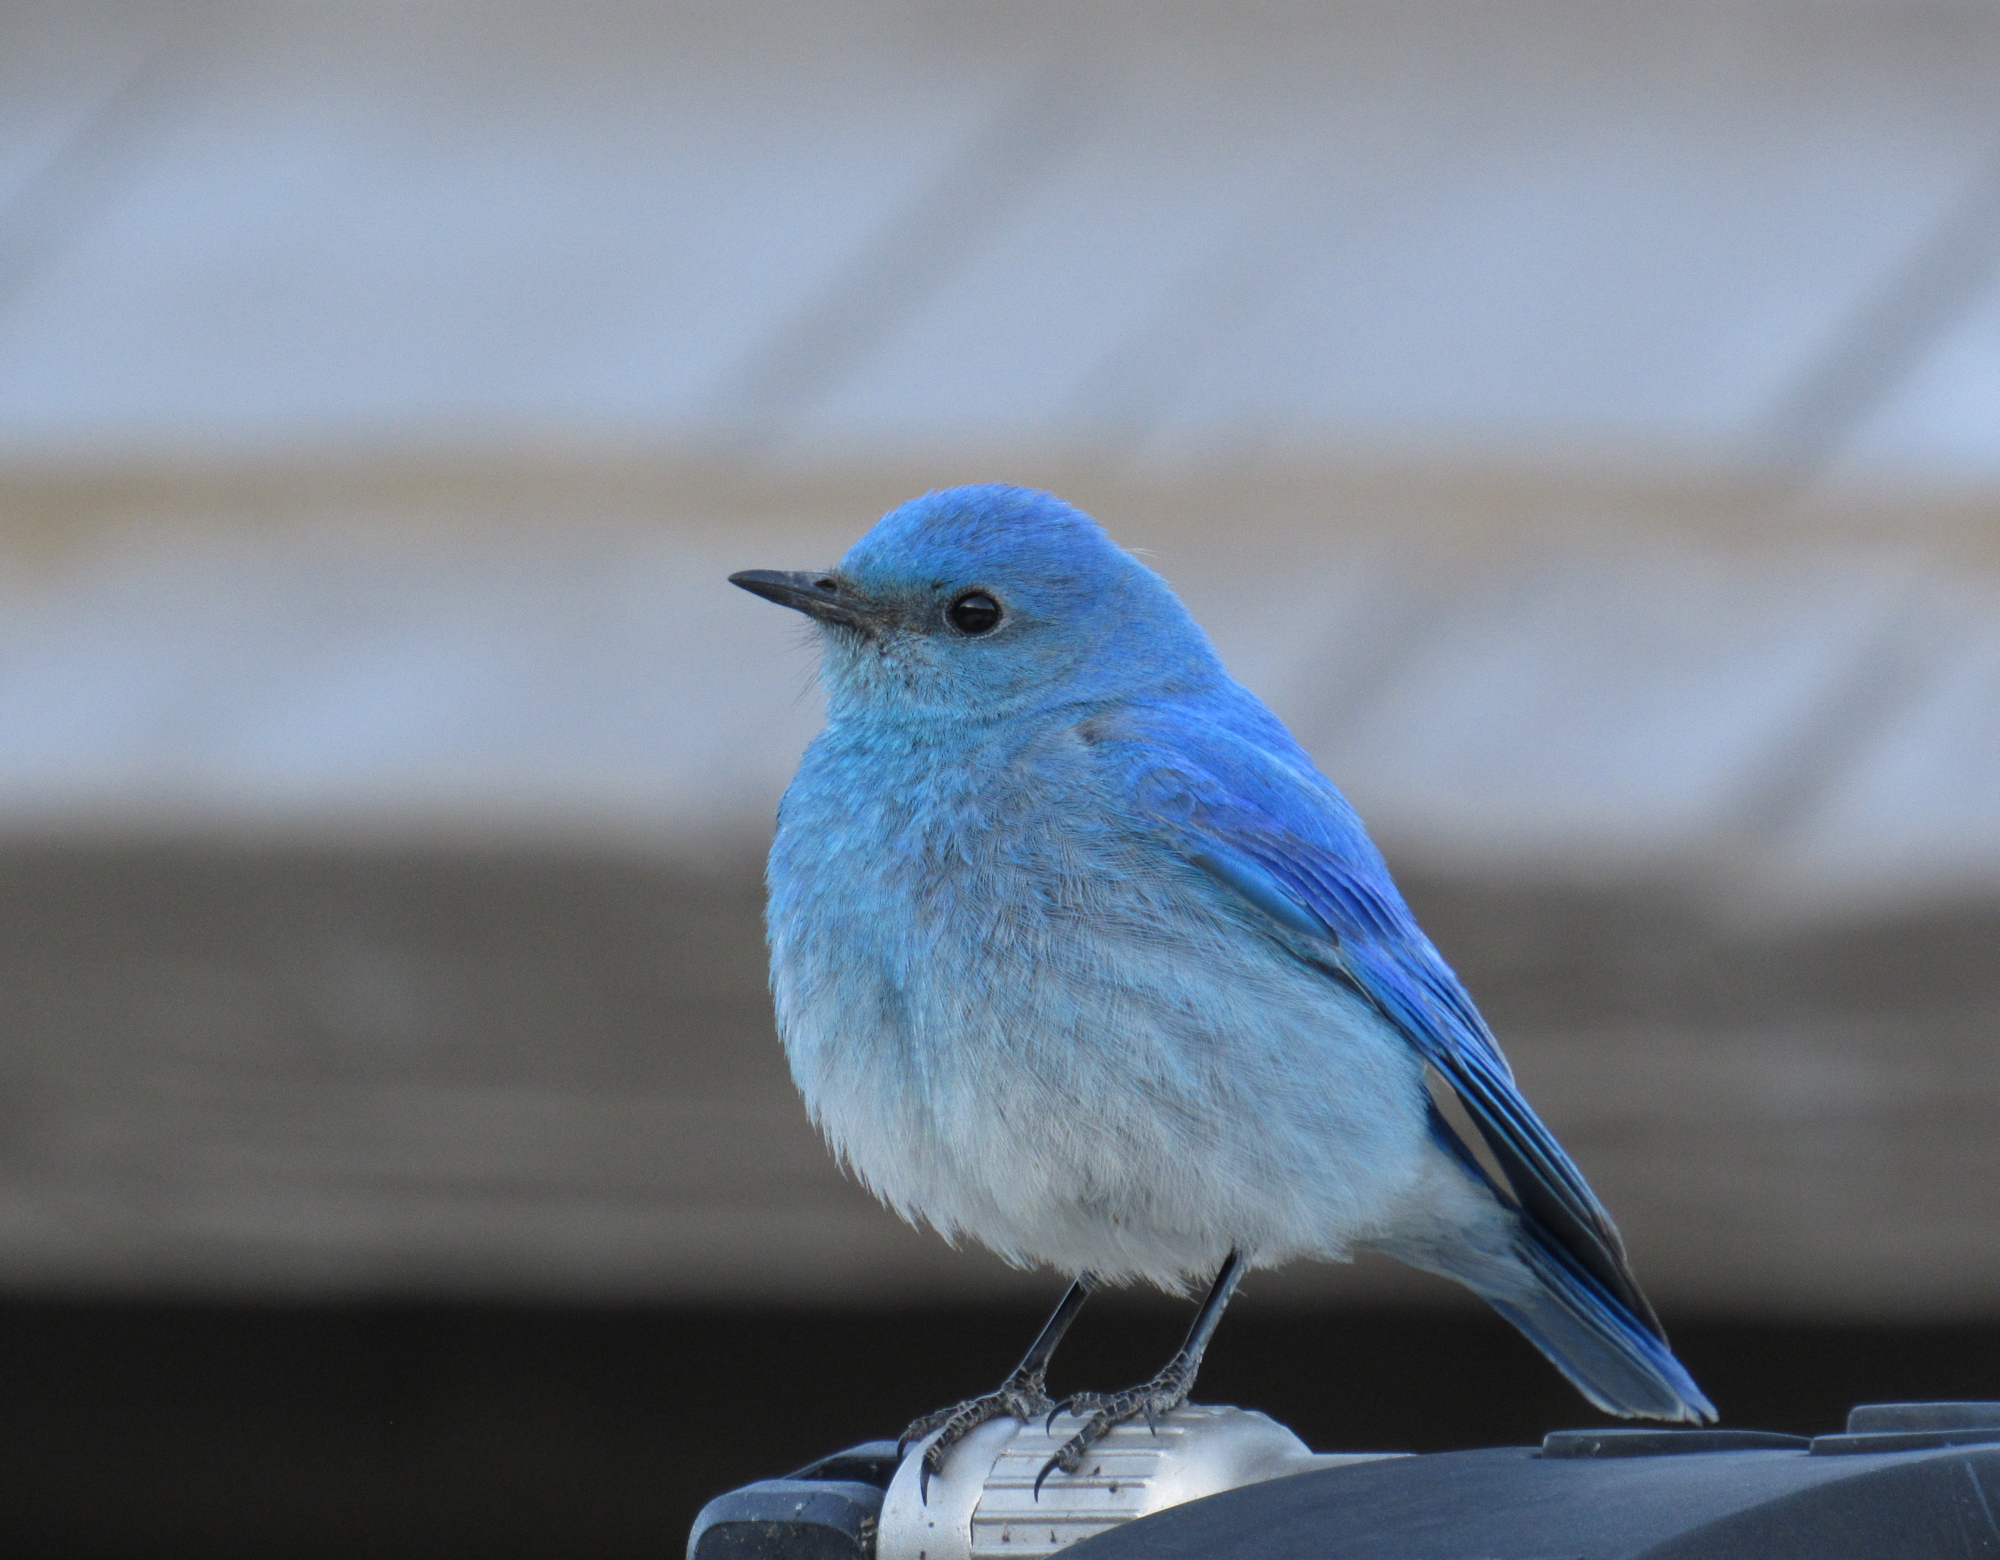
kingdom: Animalia
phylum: Chordata
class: Aves
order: Passeriformes
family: Turdidae
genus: Sialia
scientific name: Sialia currucoides
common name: Mountain bluebird
